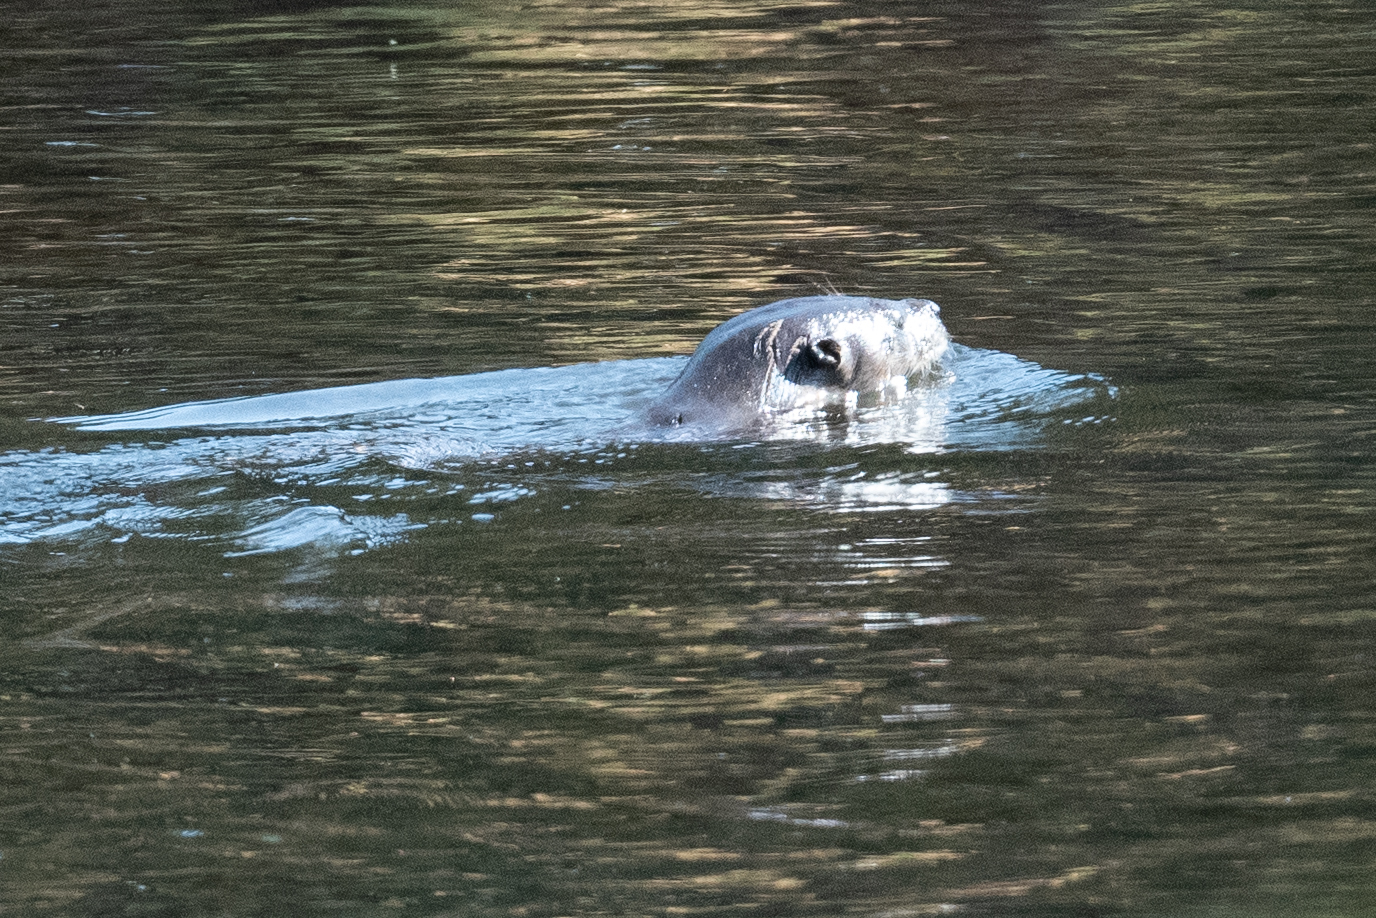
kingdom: Animalia
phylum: Chordata
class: Mammalia
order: Carnivora
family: Mustelidae
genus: Lontra
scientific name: Lontra canadensis
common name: North american river otter
